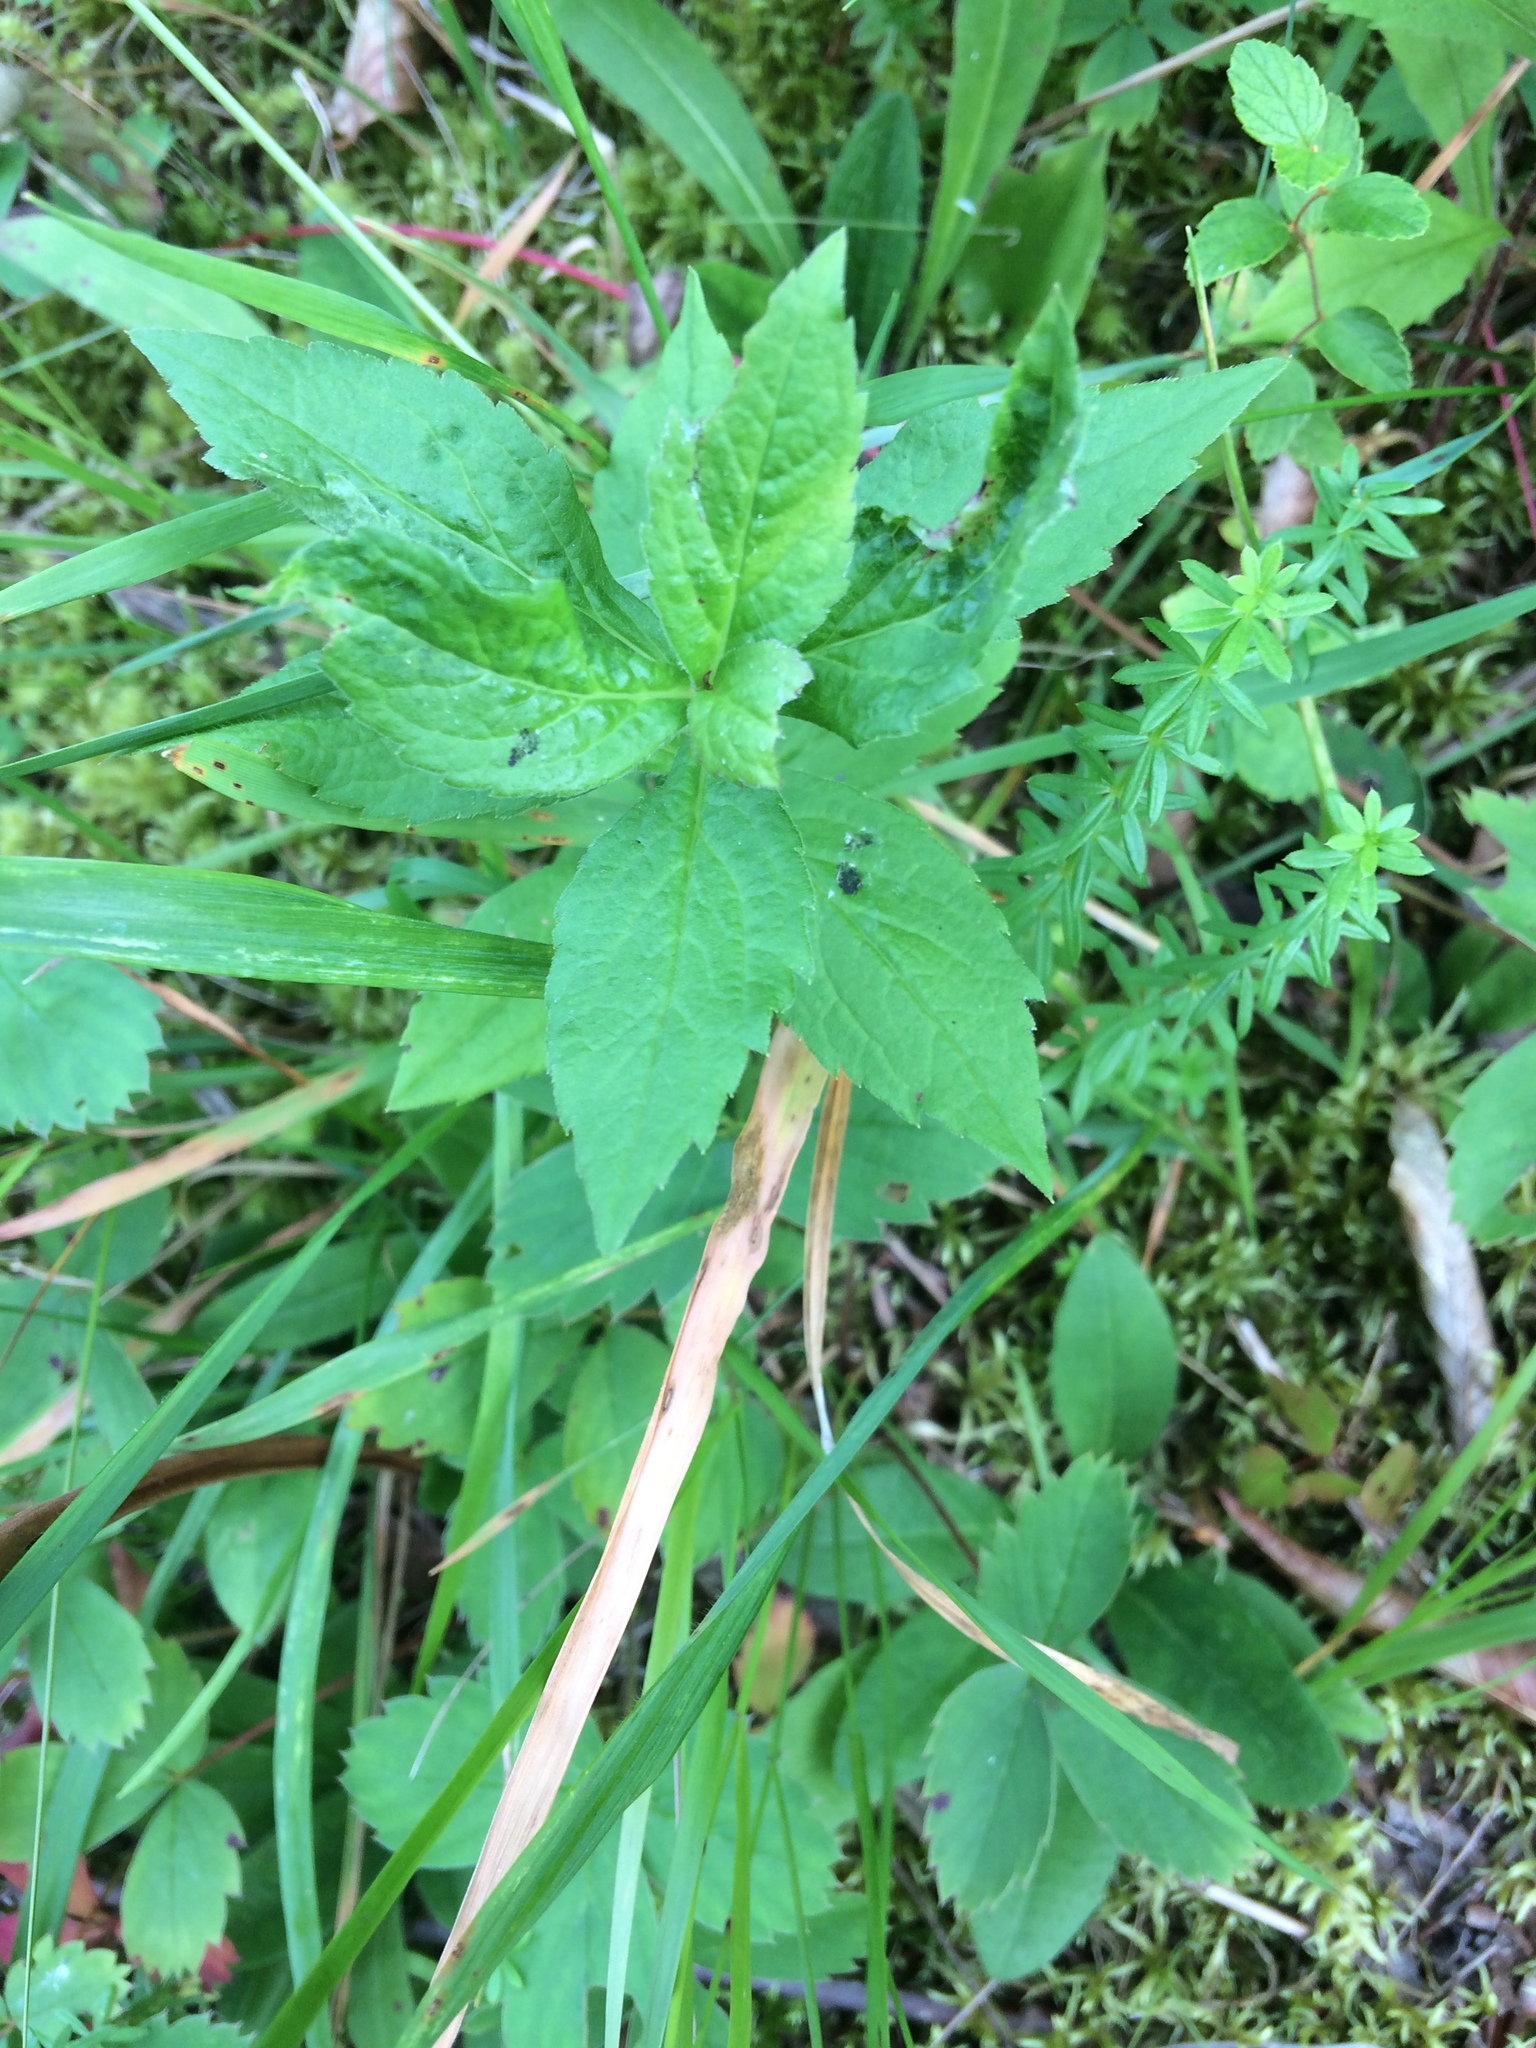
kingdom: Plantae
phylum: Tracheophyta
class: Magnoliopsida
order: Asterales
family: Asteraceae
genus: Solidago
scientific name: Solidago rugosa
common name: Rough-stemmed goldenrod
